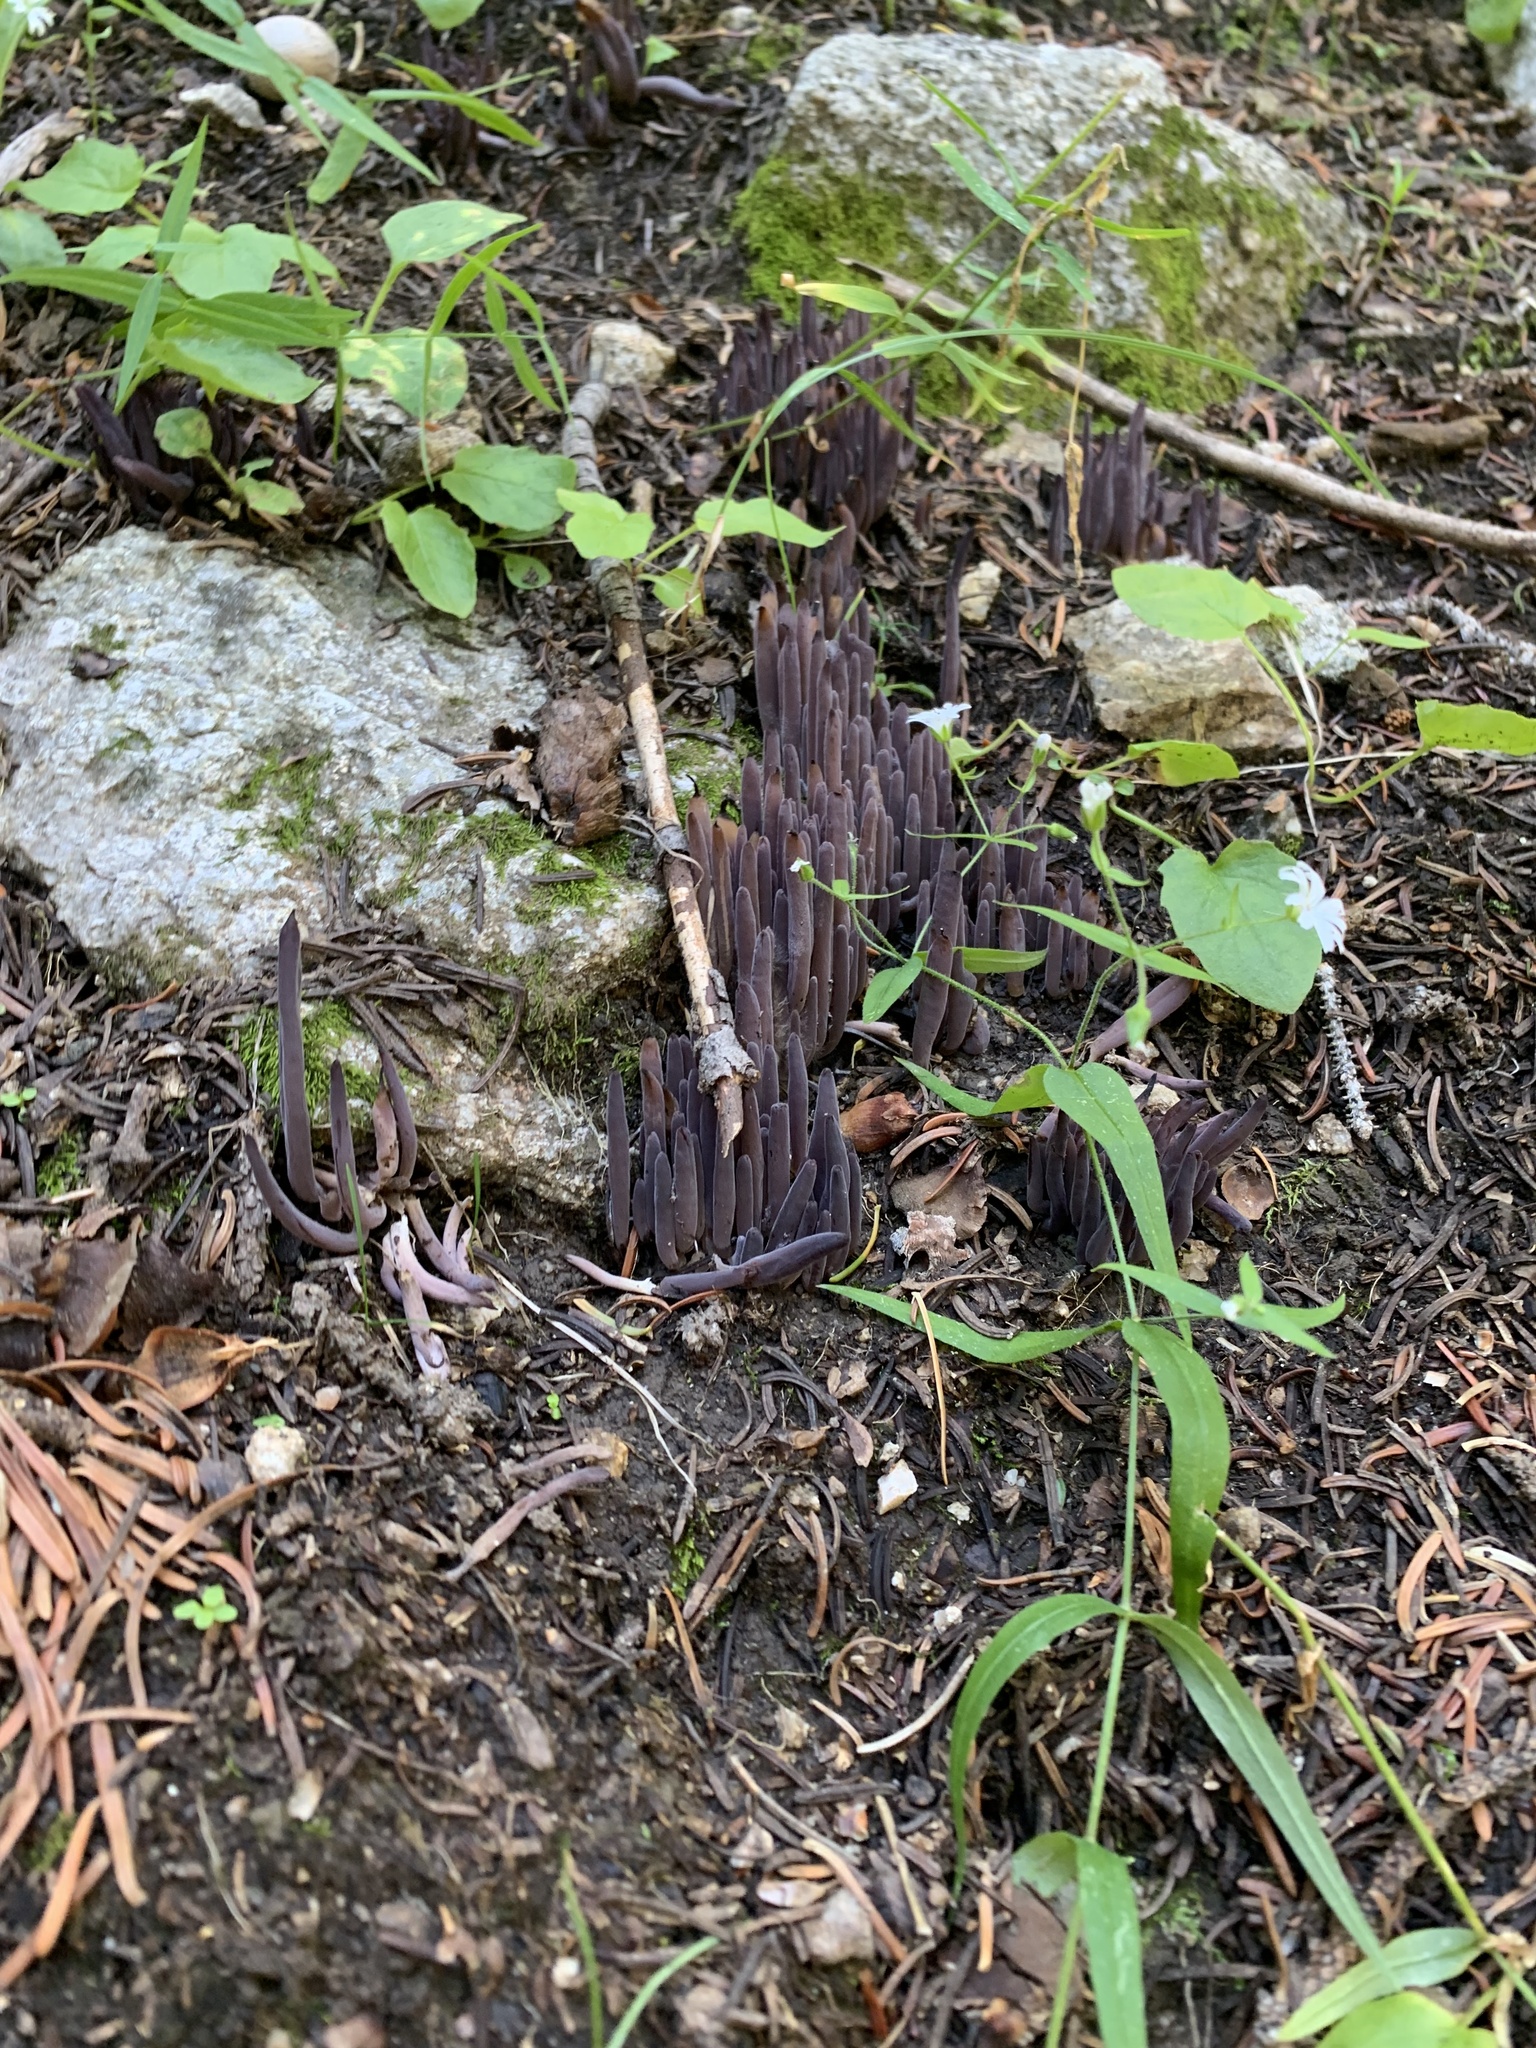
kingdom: Fungi
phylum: Basidiomycota
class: Agaricomycetes
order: Hymenochaetales
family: Rickenellaceae
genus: Alloclavaria
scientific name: Alloclavaria purpurea
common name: Purple spindles
